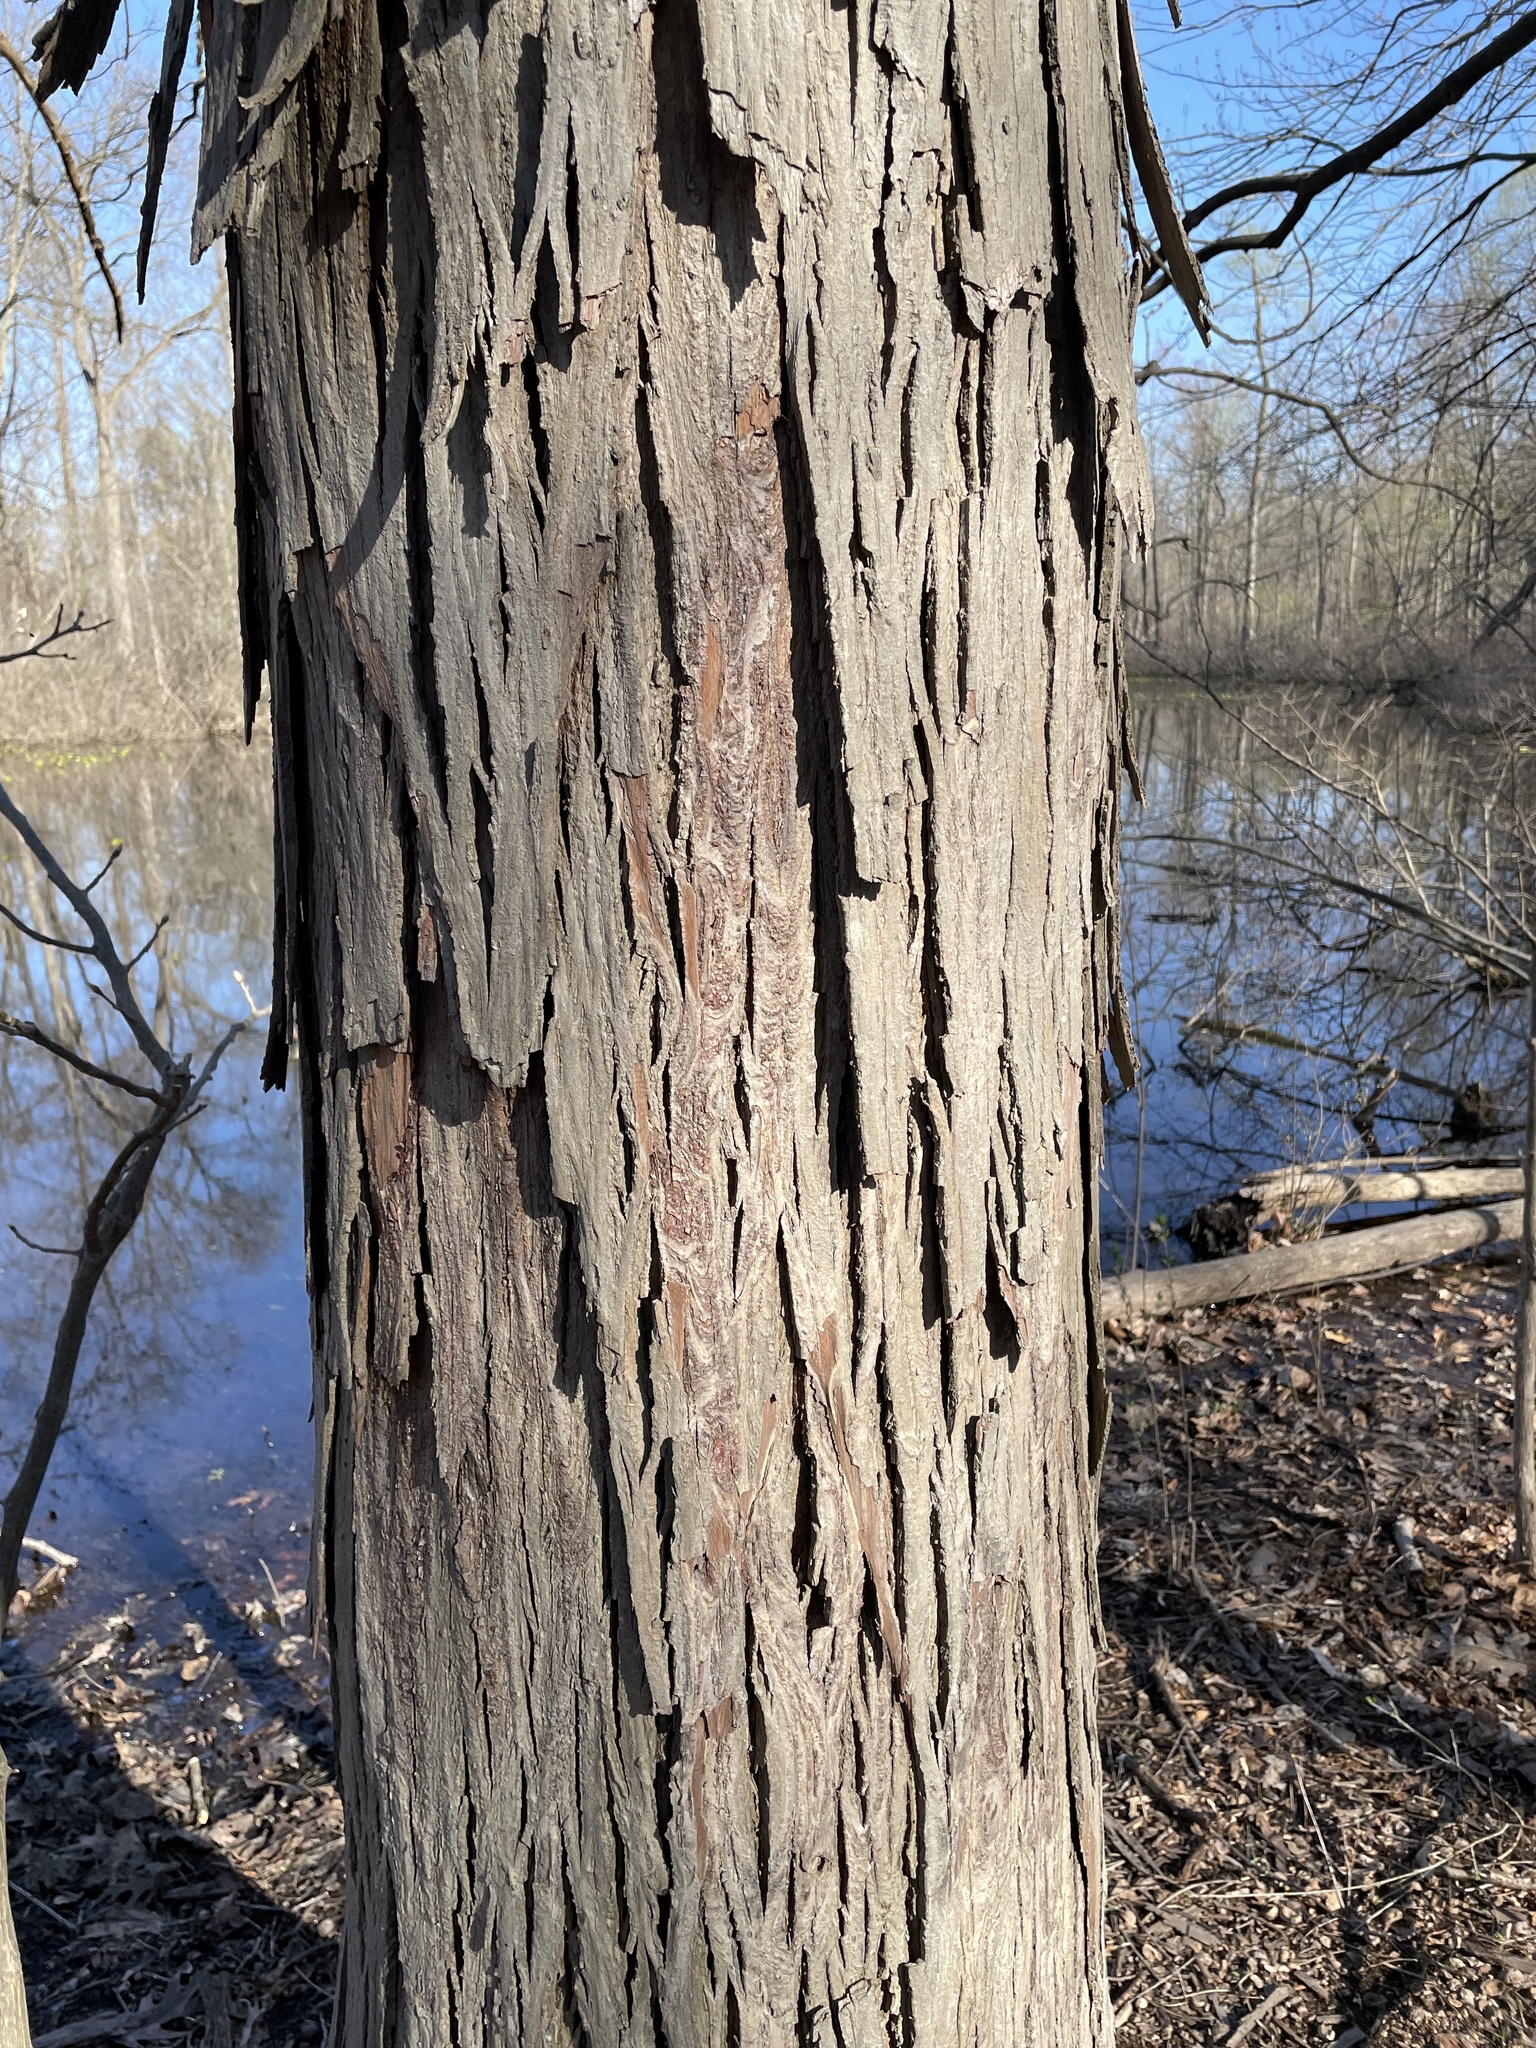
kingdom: Plantae
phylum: Tracheophyta
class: Magnoliopsida
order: Fagales
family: Juglandaceae
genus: Carya
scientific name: Carya ovata
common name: Shagbark hickory
